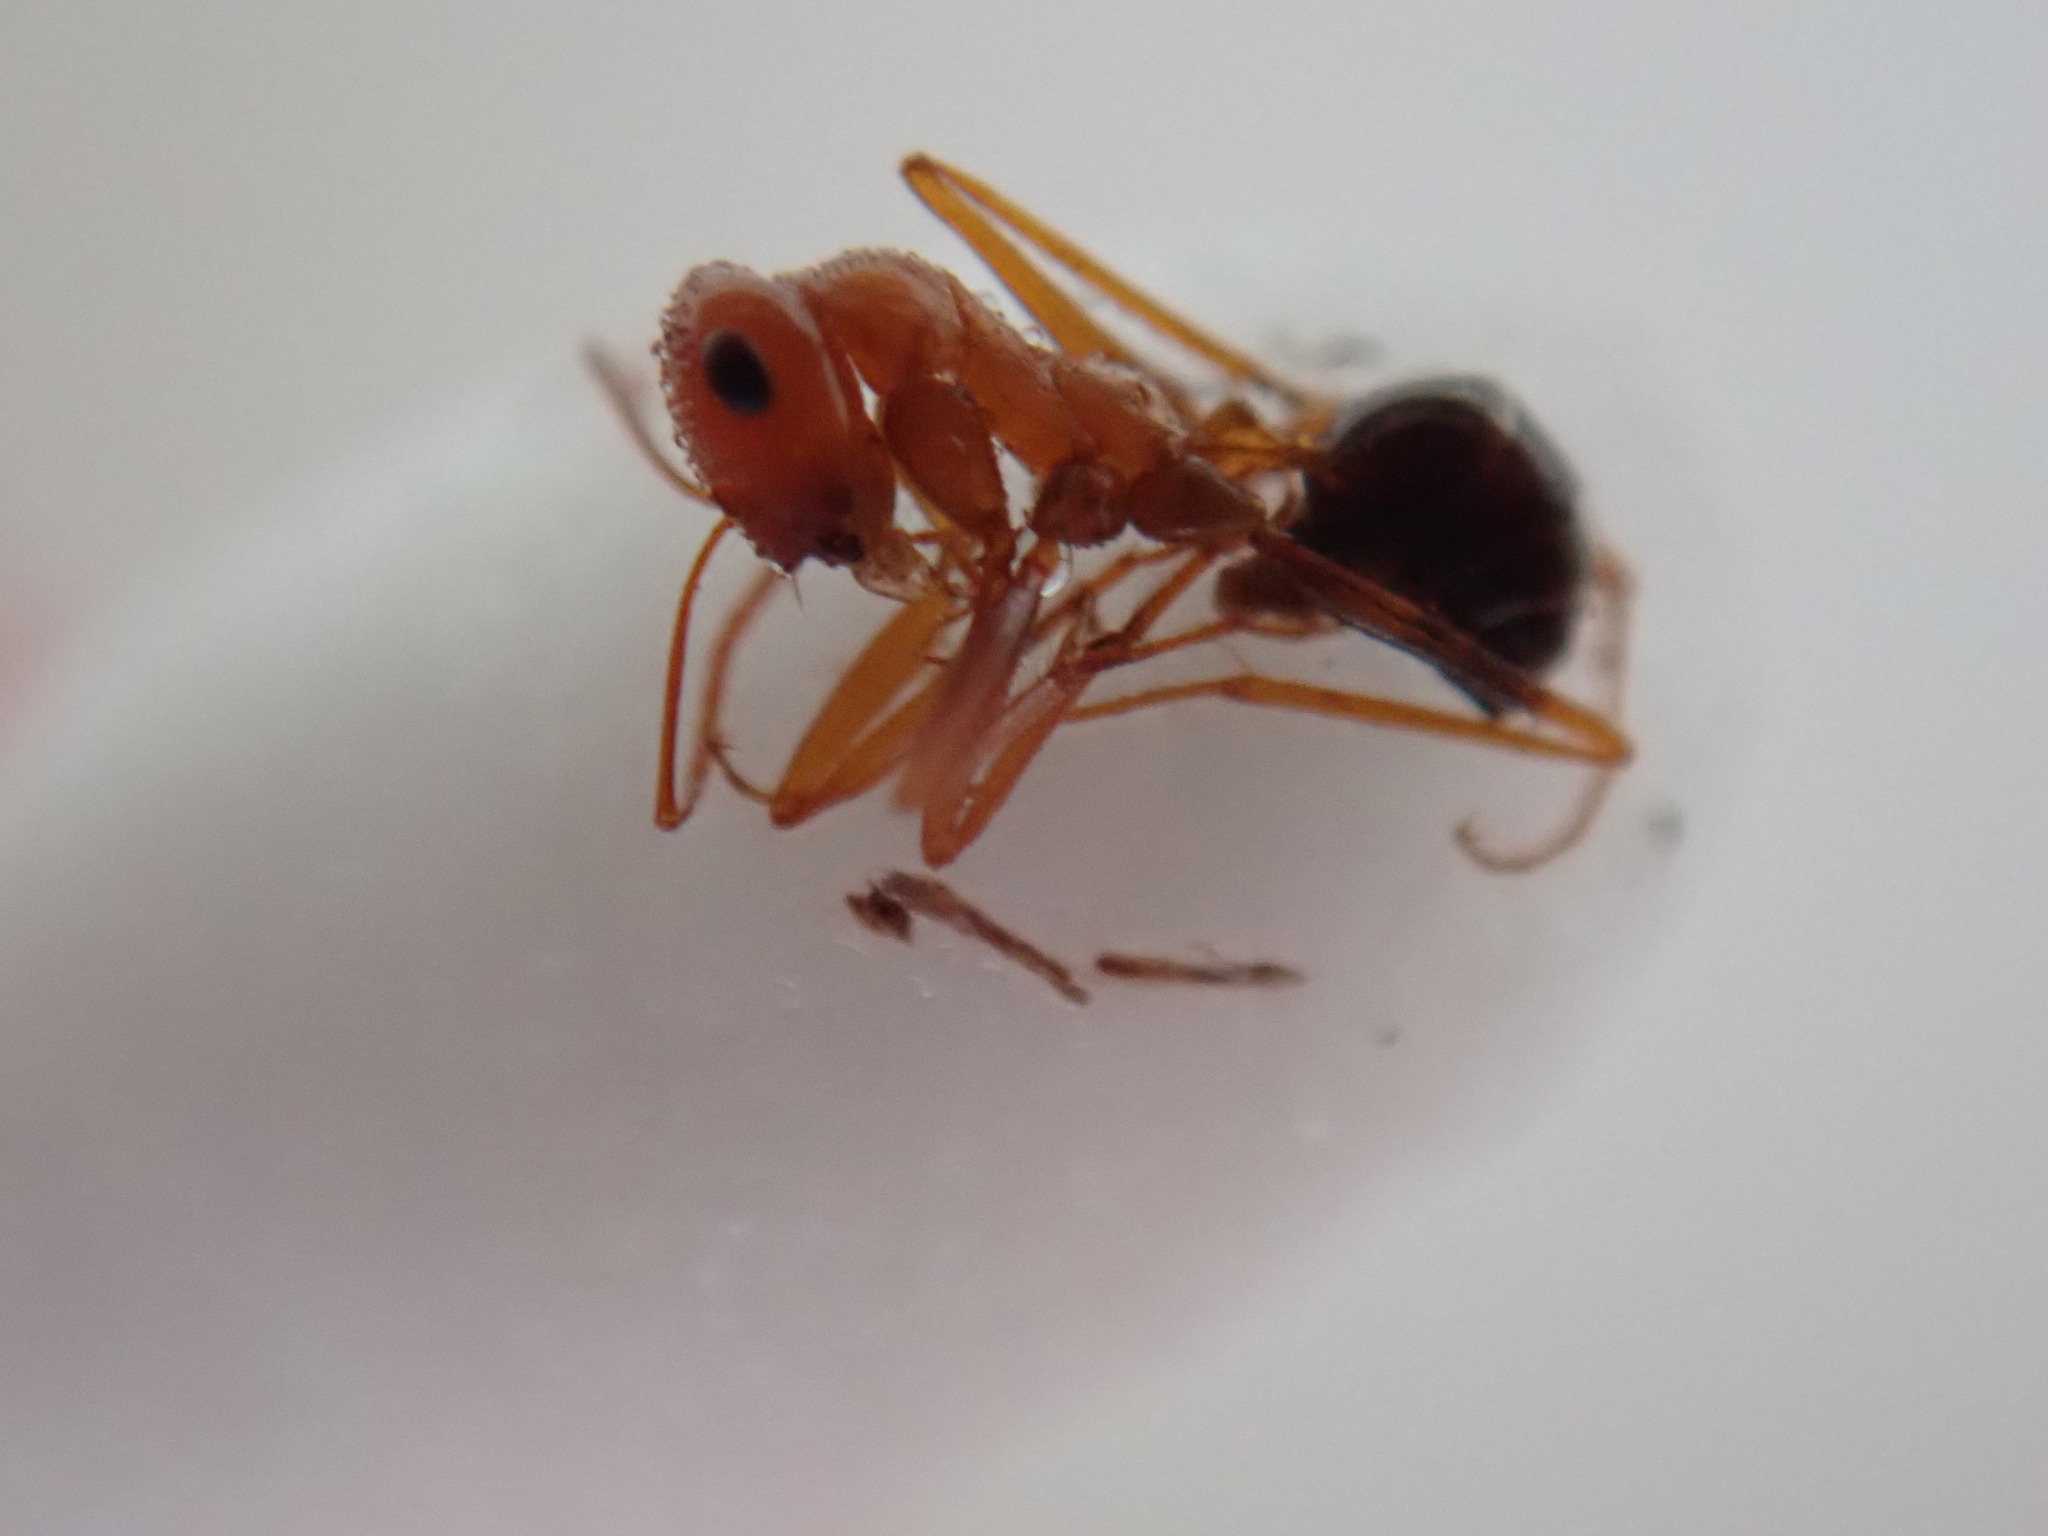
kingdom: Animalia
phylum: Arthropoda
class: Insecta
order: Hymenoptera
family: Formicidae
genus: Cataglyphis
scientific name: Cataglyphis viaticoides
